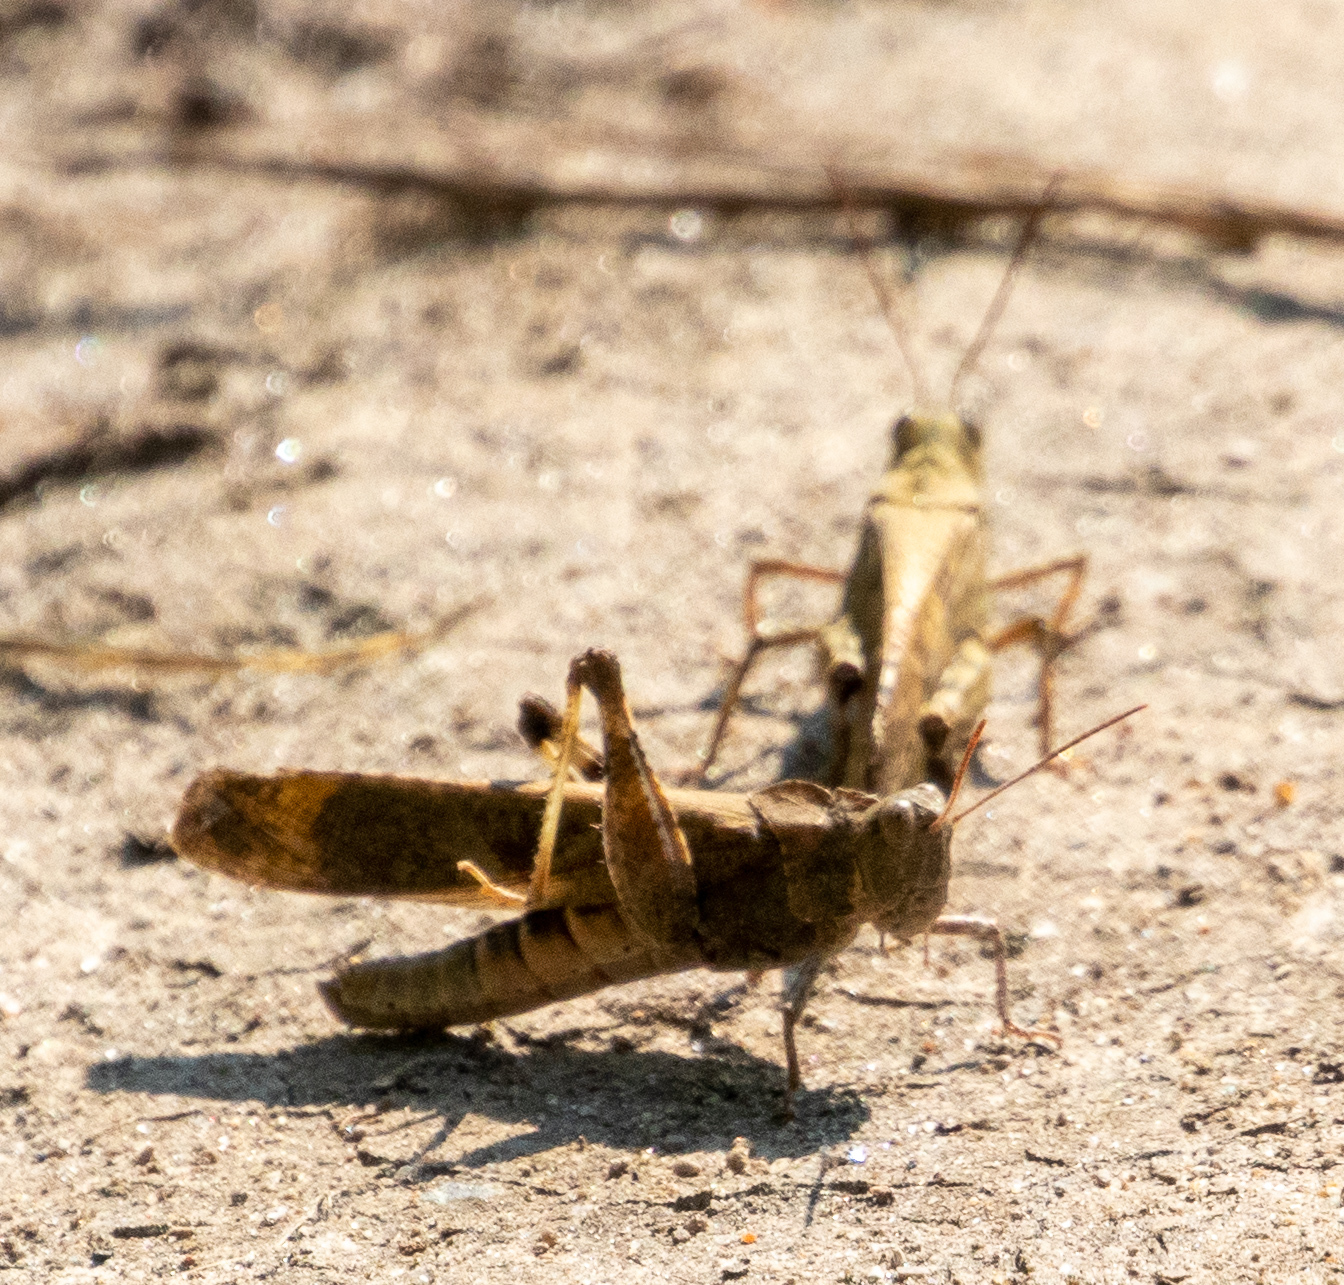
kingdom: Animalia
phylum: Arthropoda
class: Insecta
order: Orthoptera
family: Acrididae
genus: Dissosteira
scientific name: Dissosteira carolina
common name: Carolina grasshopper
